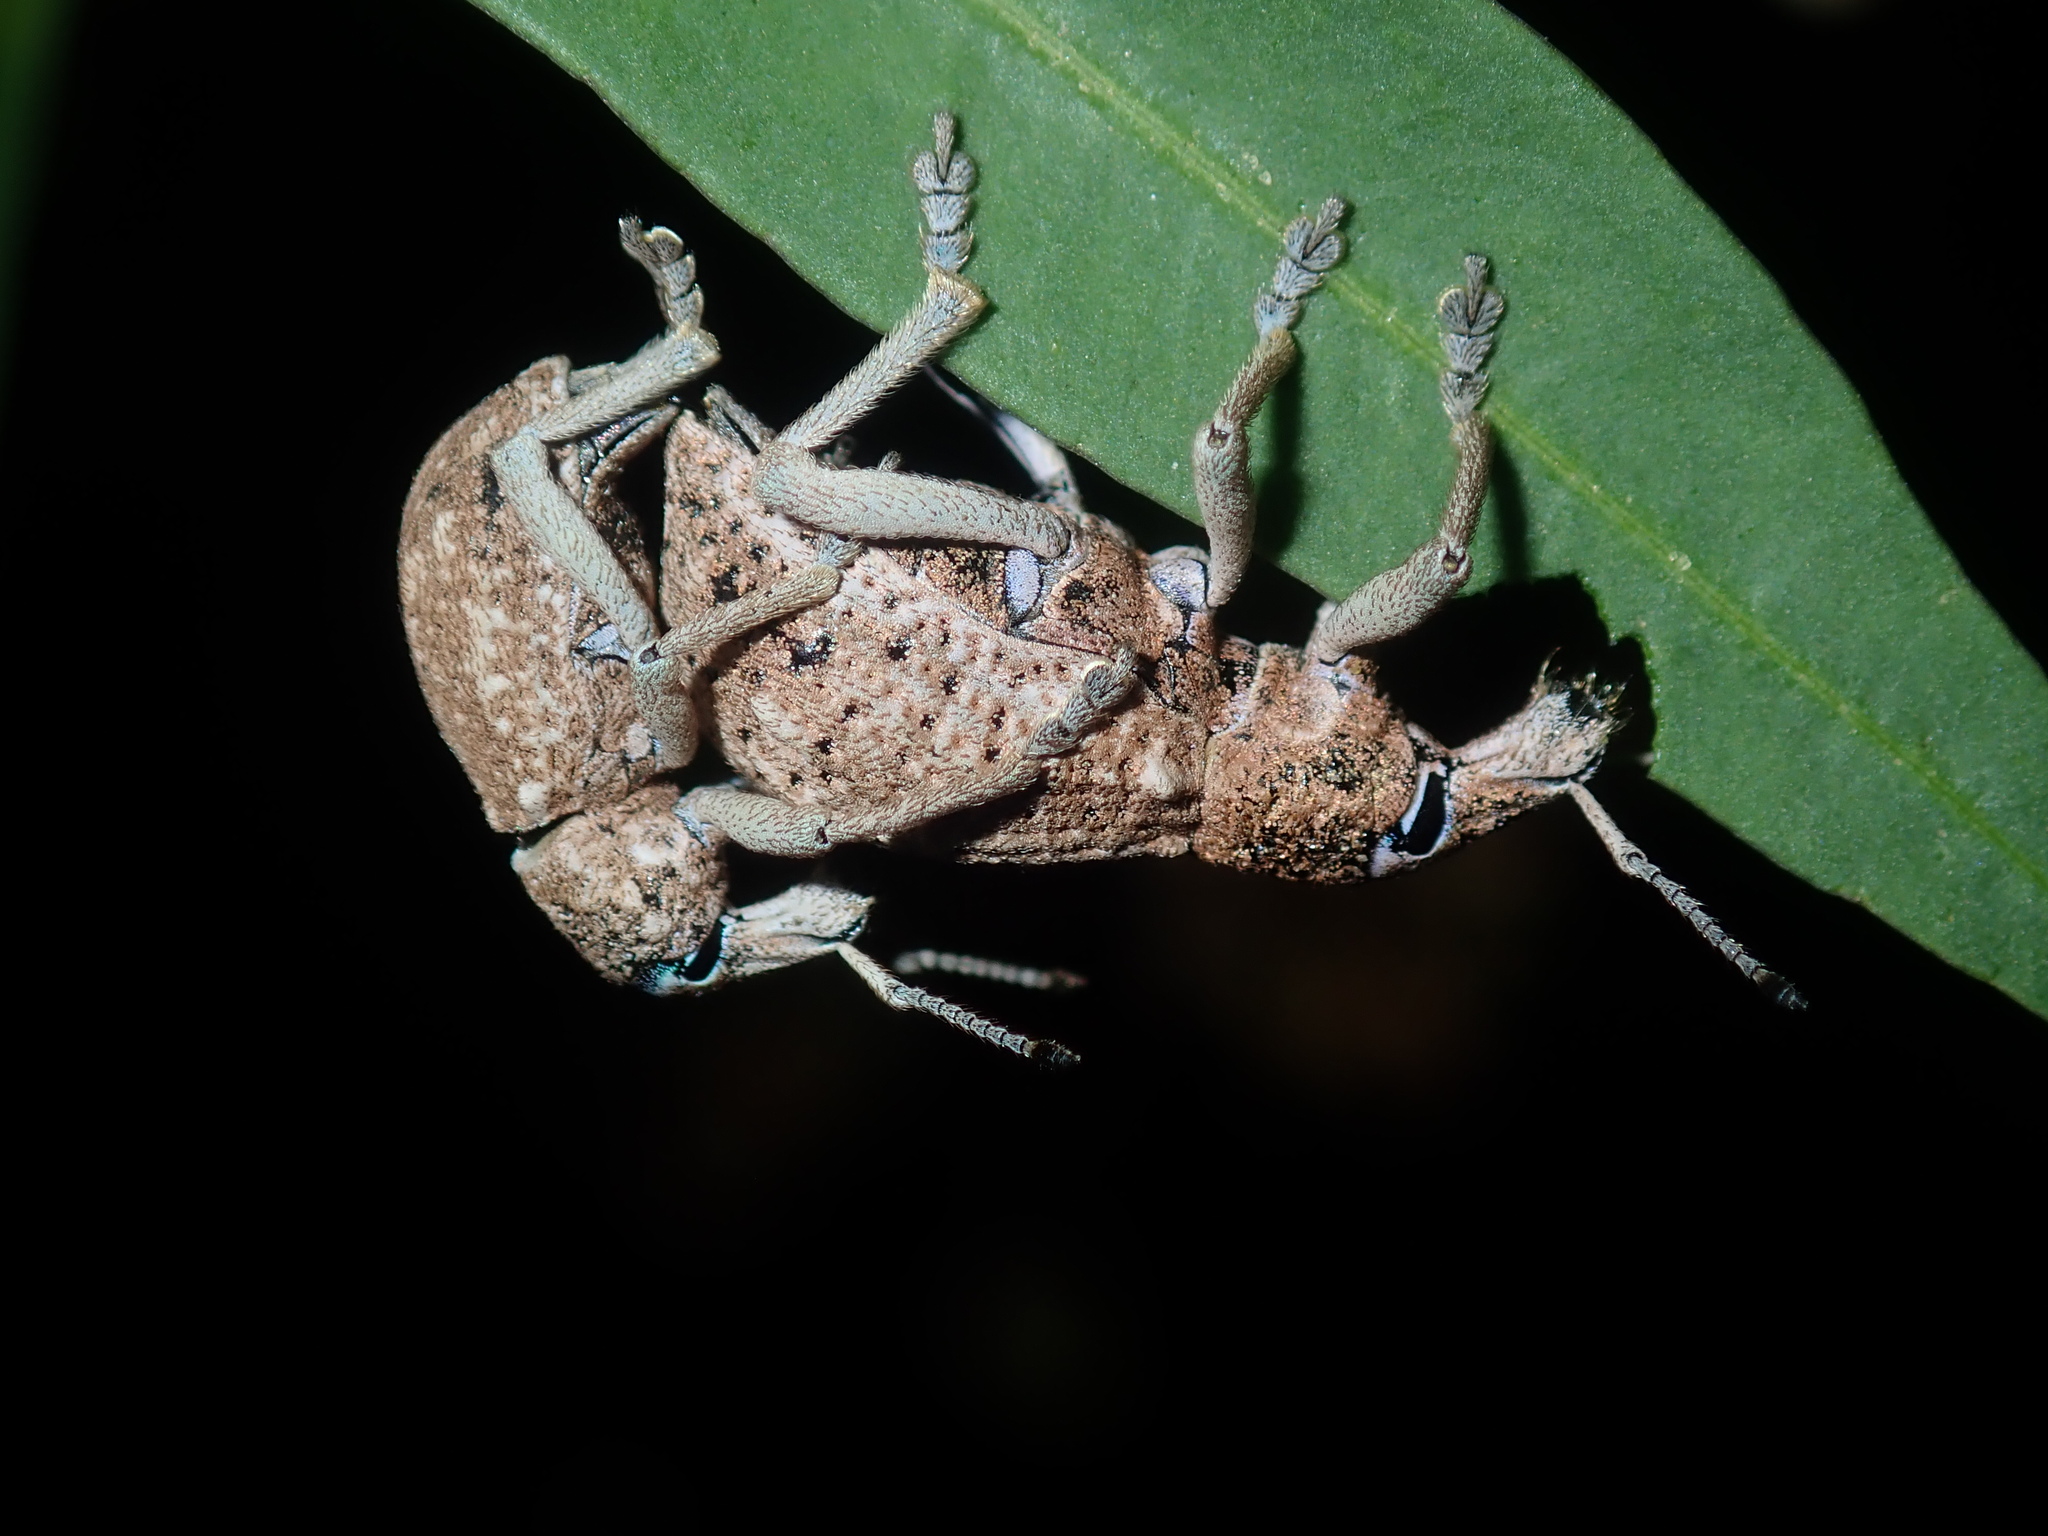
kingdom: Animalia
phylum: Arthropoda
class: Insecta
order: Coleoptera
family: Curculionidae
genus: Leptopius
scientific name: Leptopius robustus
